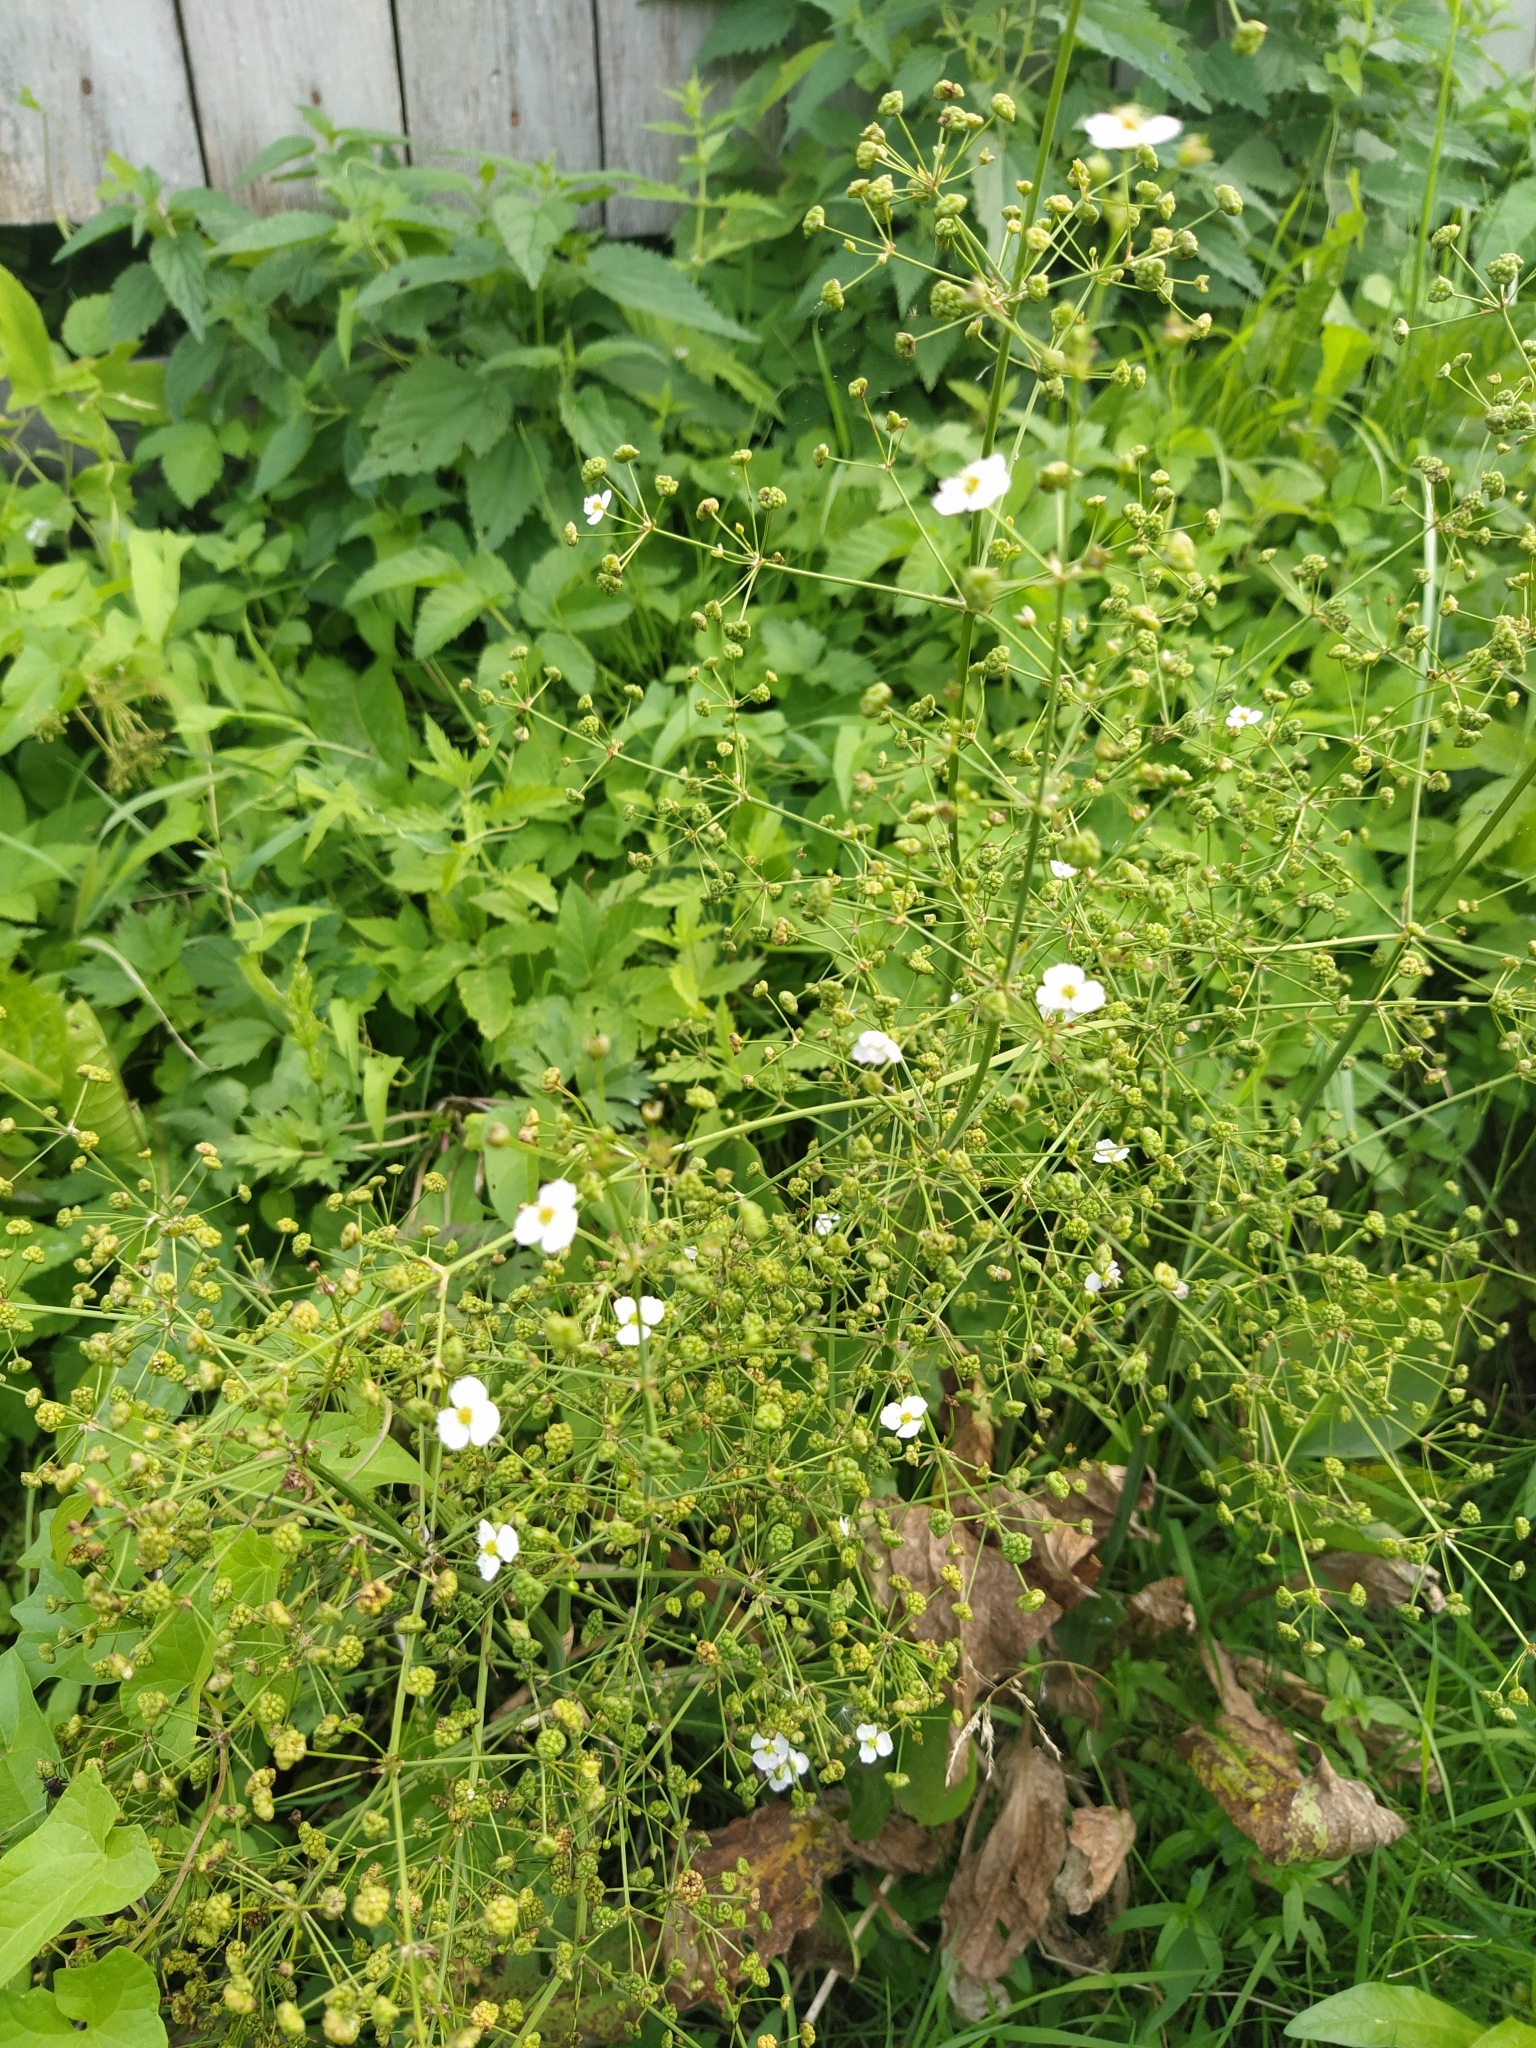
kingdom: Plantae
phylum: Tracheophyta
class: Liliopsida
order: Alismatales
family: Alismataceae
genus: Alisma
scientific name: Alisma plantago-aquatica
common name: Water-plantain
